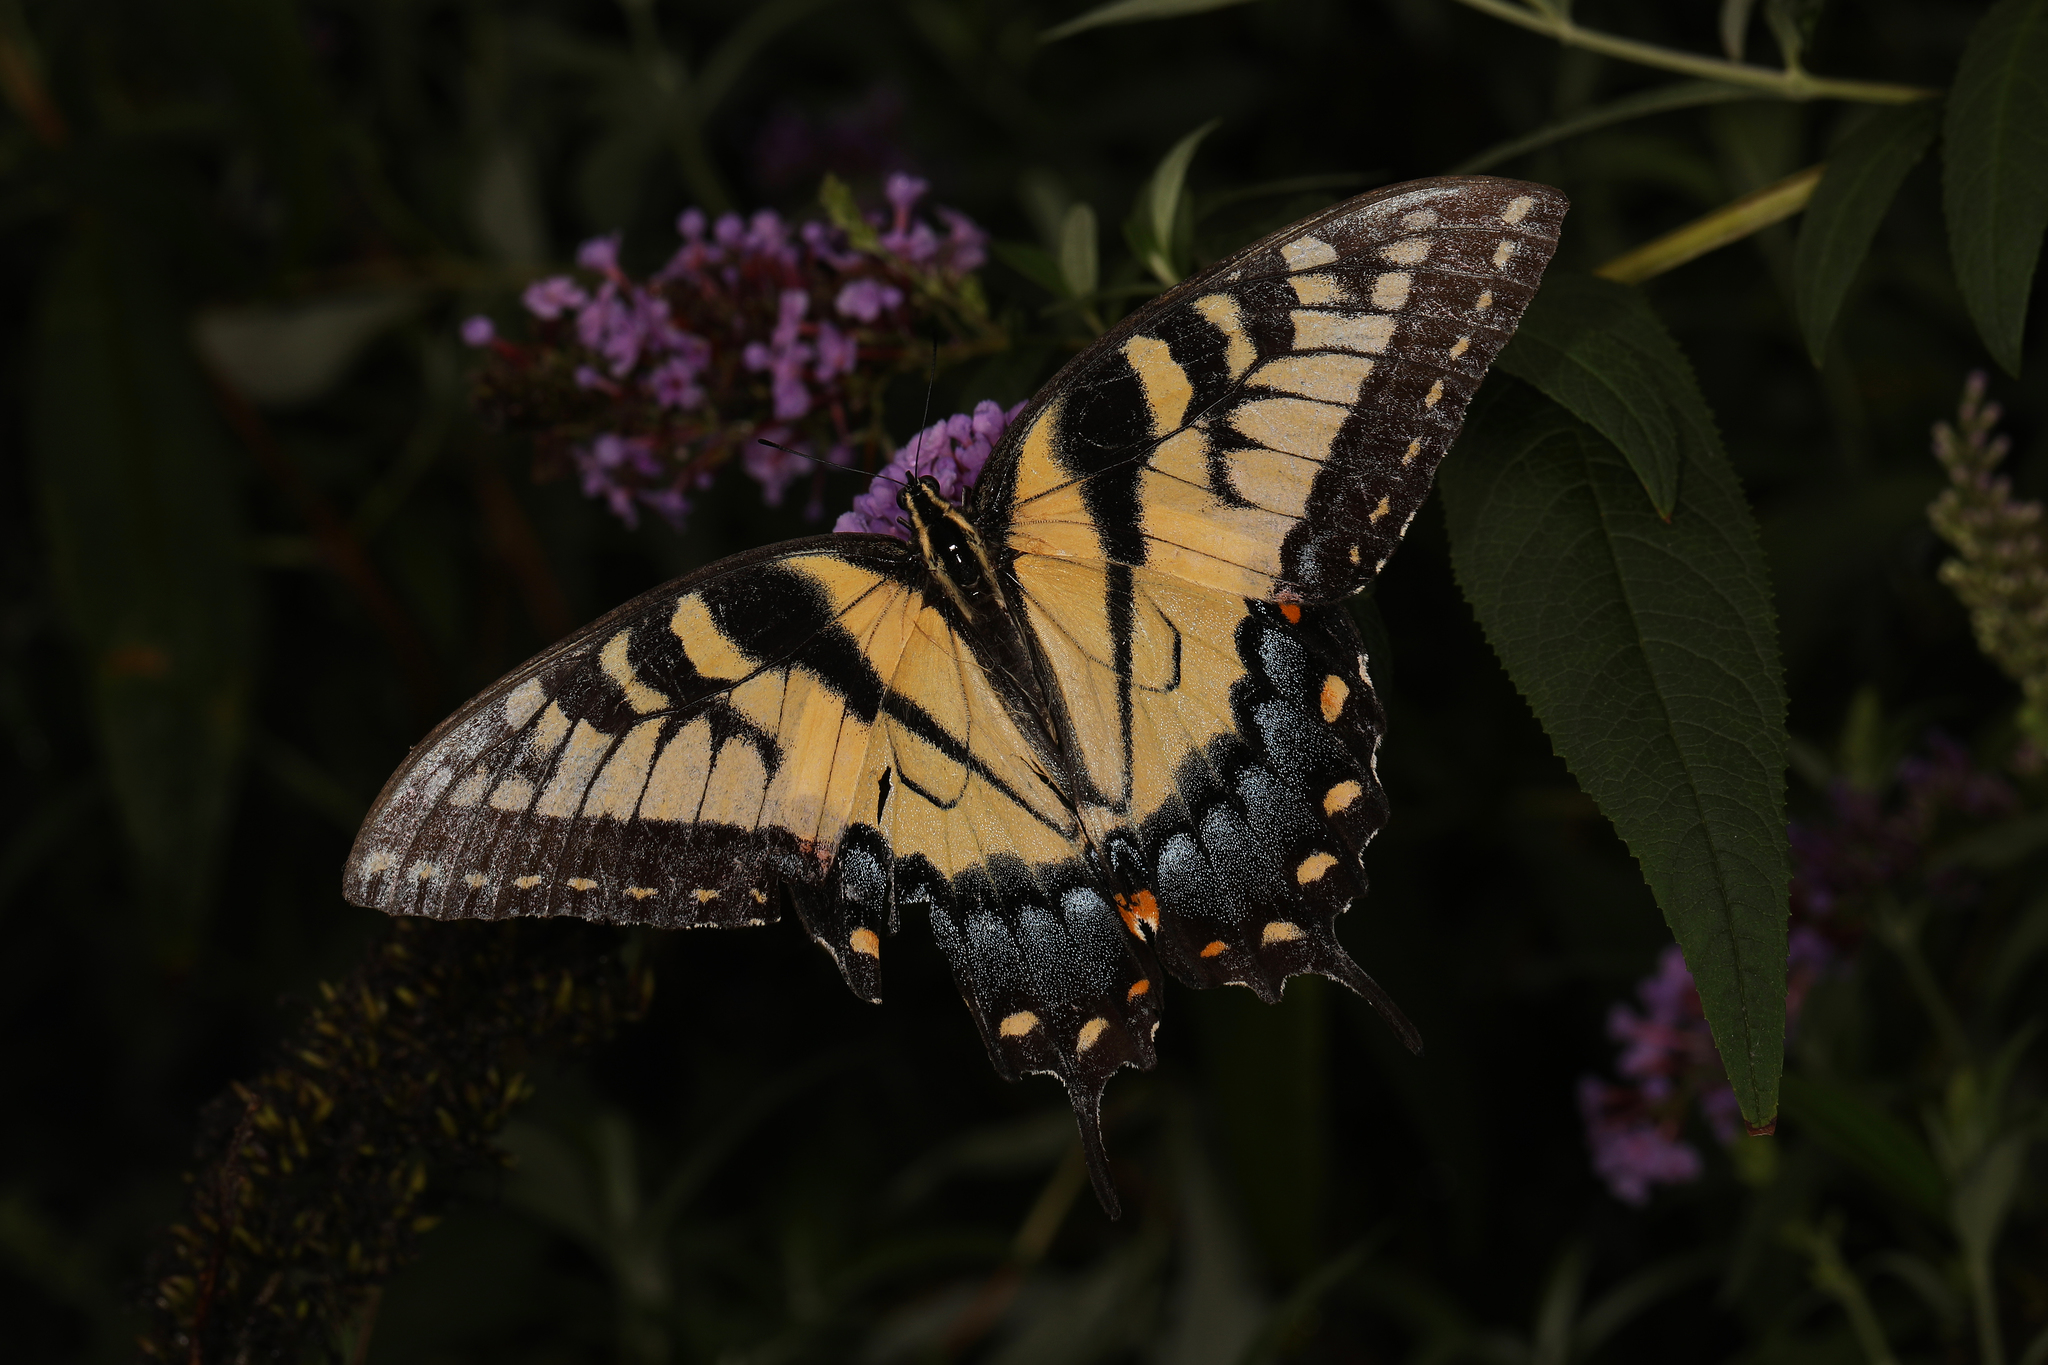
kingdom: Animalia
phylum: Arthropoda
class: Insecta
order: Lepidoptera
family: Papilionidae
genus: Papilio
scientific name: Papilio glaucus
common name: Tiger swallowtail
